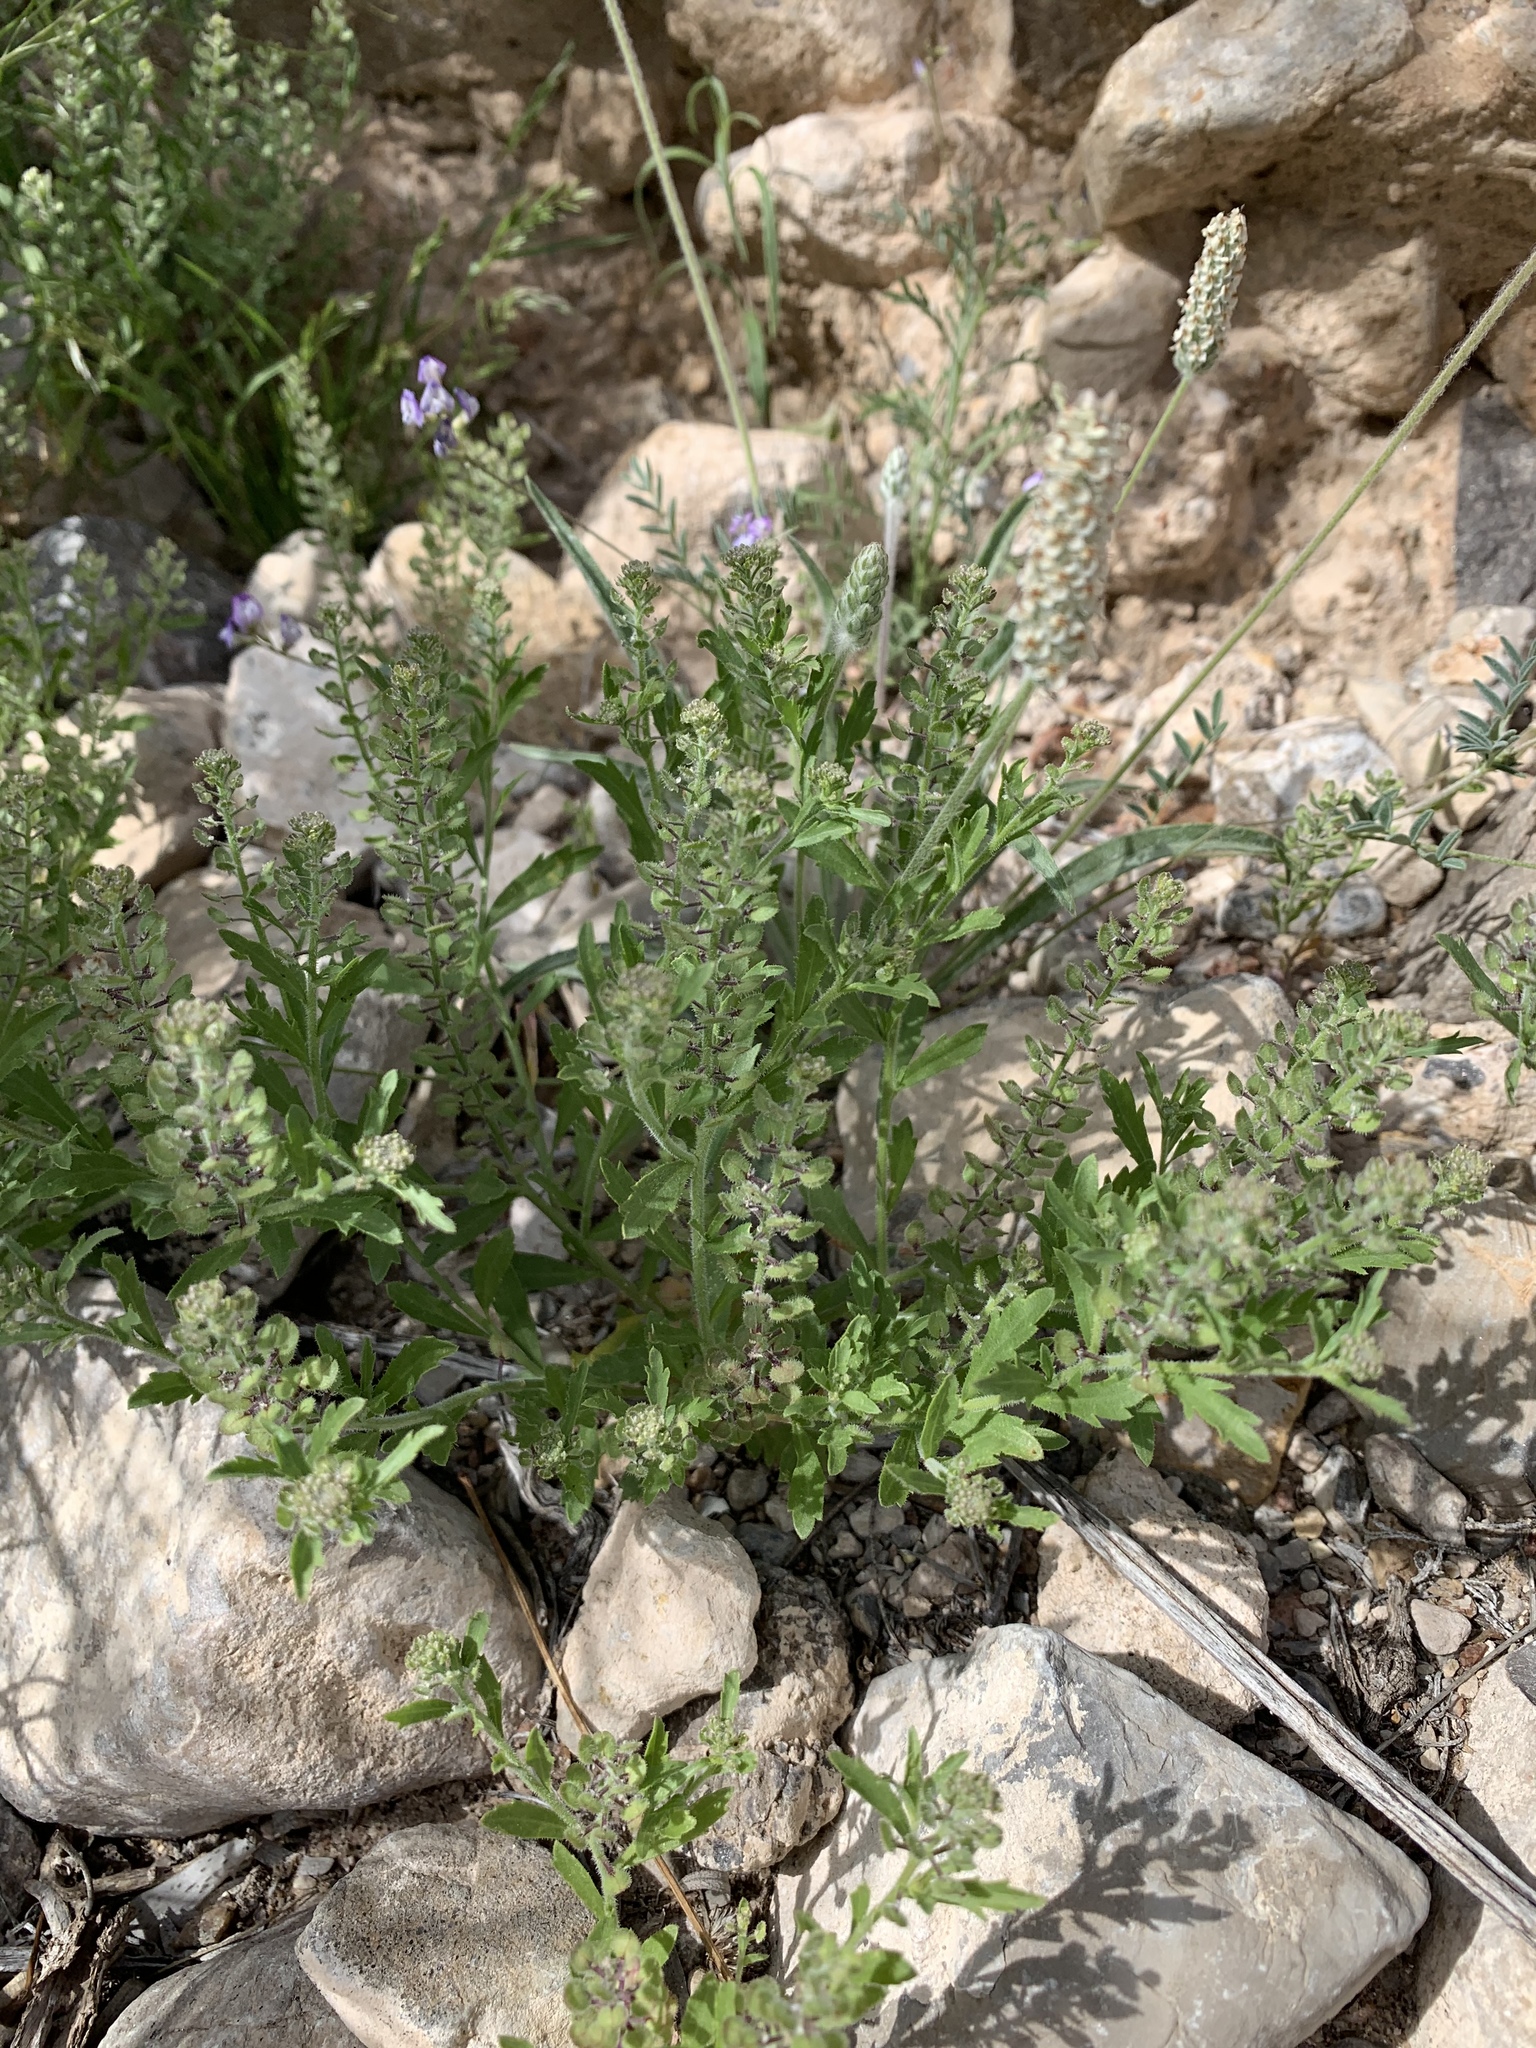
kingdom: Plantae
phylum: Tracheophyta
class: Magnoliopsida
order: Brassicales
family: Brassicaceae
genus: Lepidium
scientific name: Lepidium lasiocarpum
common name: Hairy-pod pepperwort
